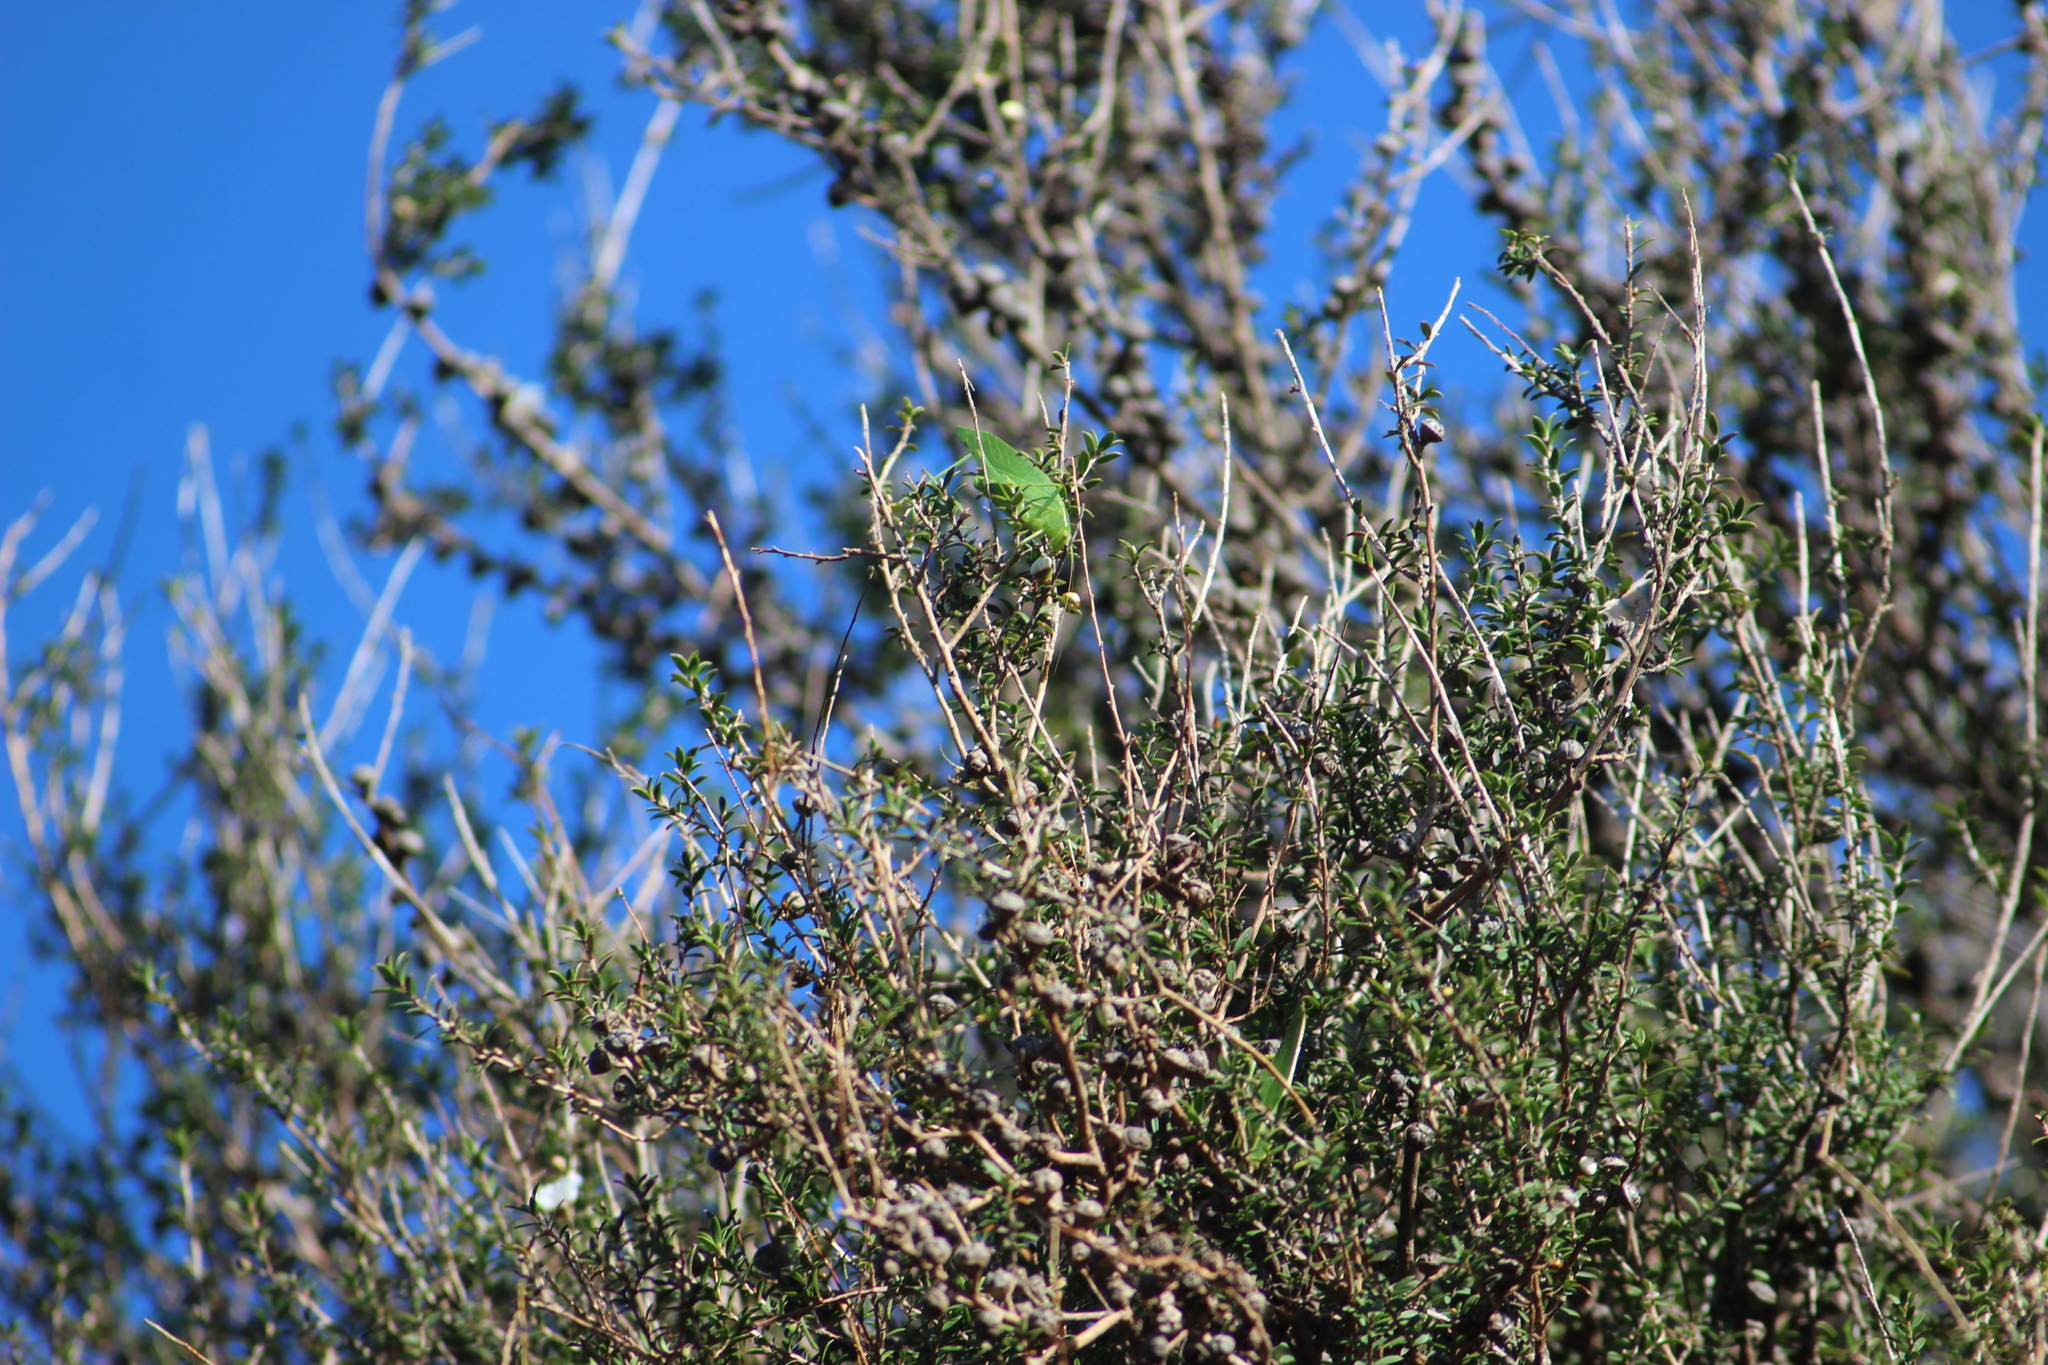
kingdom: Animalia
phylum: Arthropoda
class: Insecta
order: Orthoptera
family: Tettigoniidae
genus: Caedicia
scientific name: Caedicia simplex
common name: Common garden katydid
